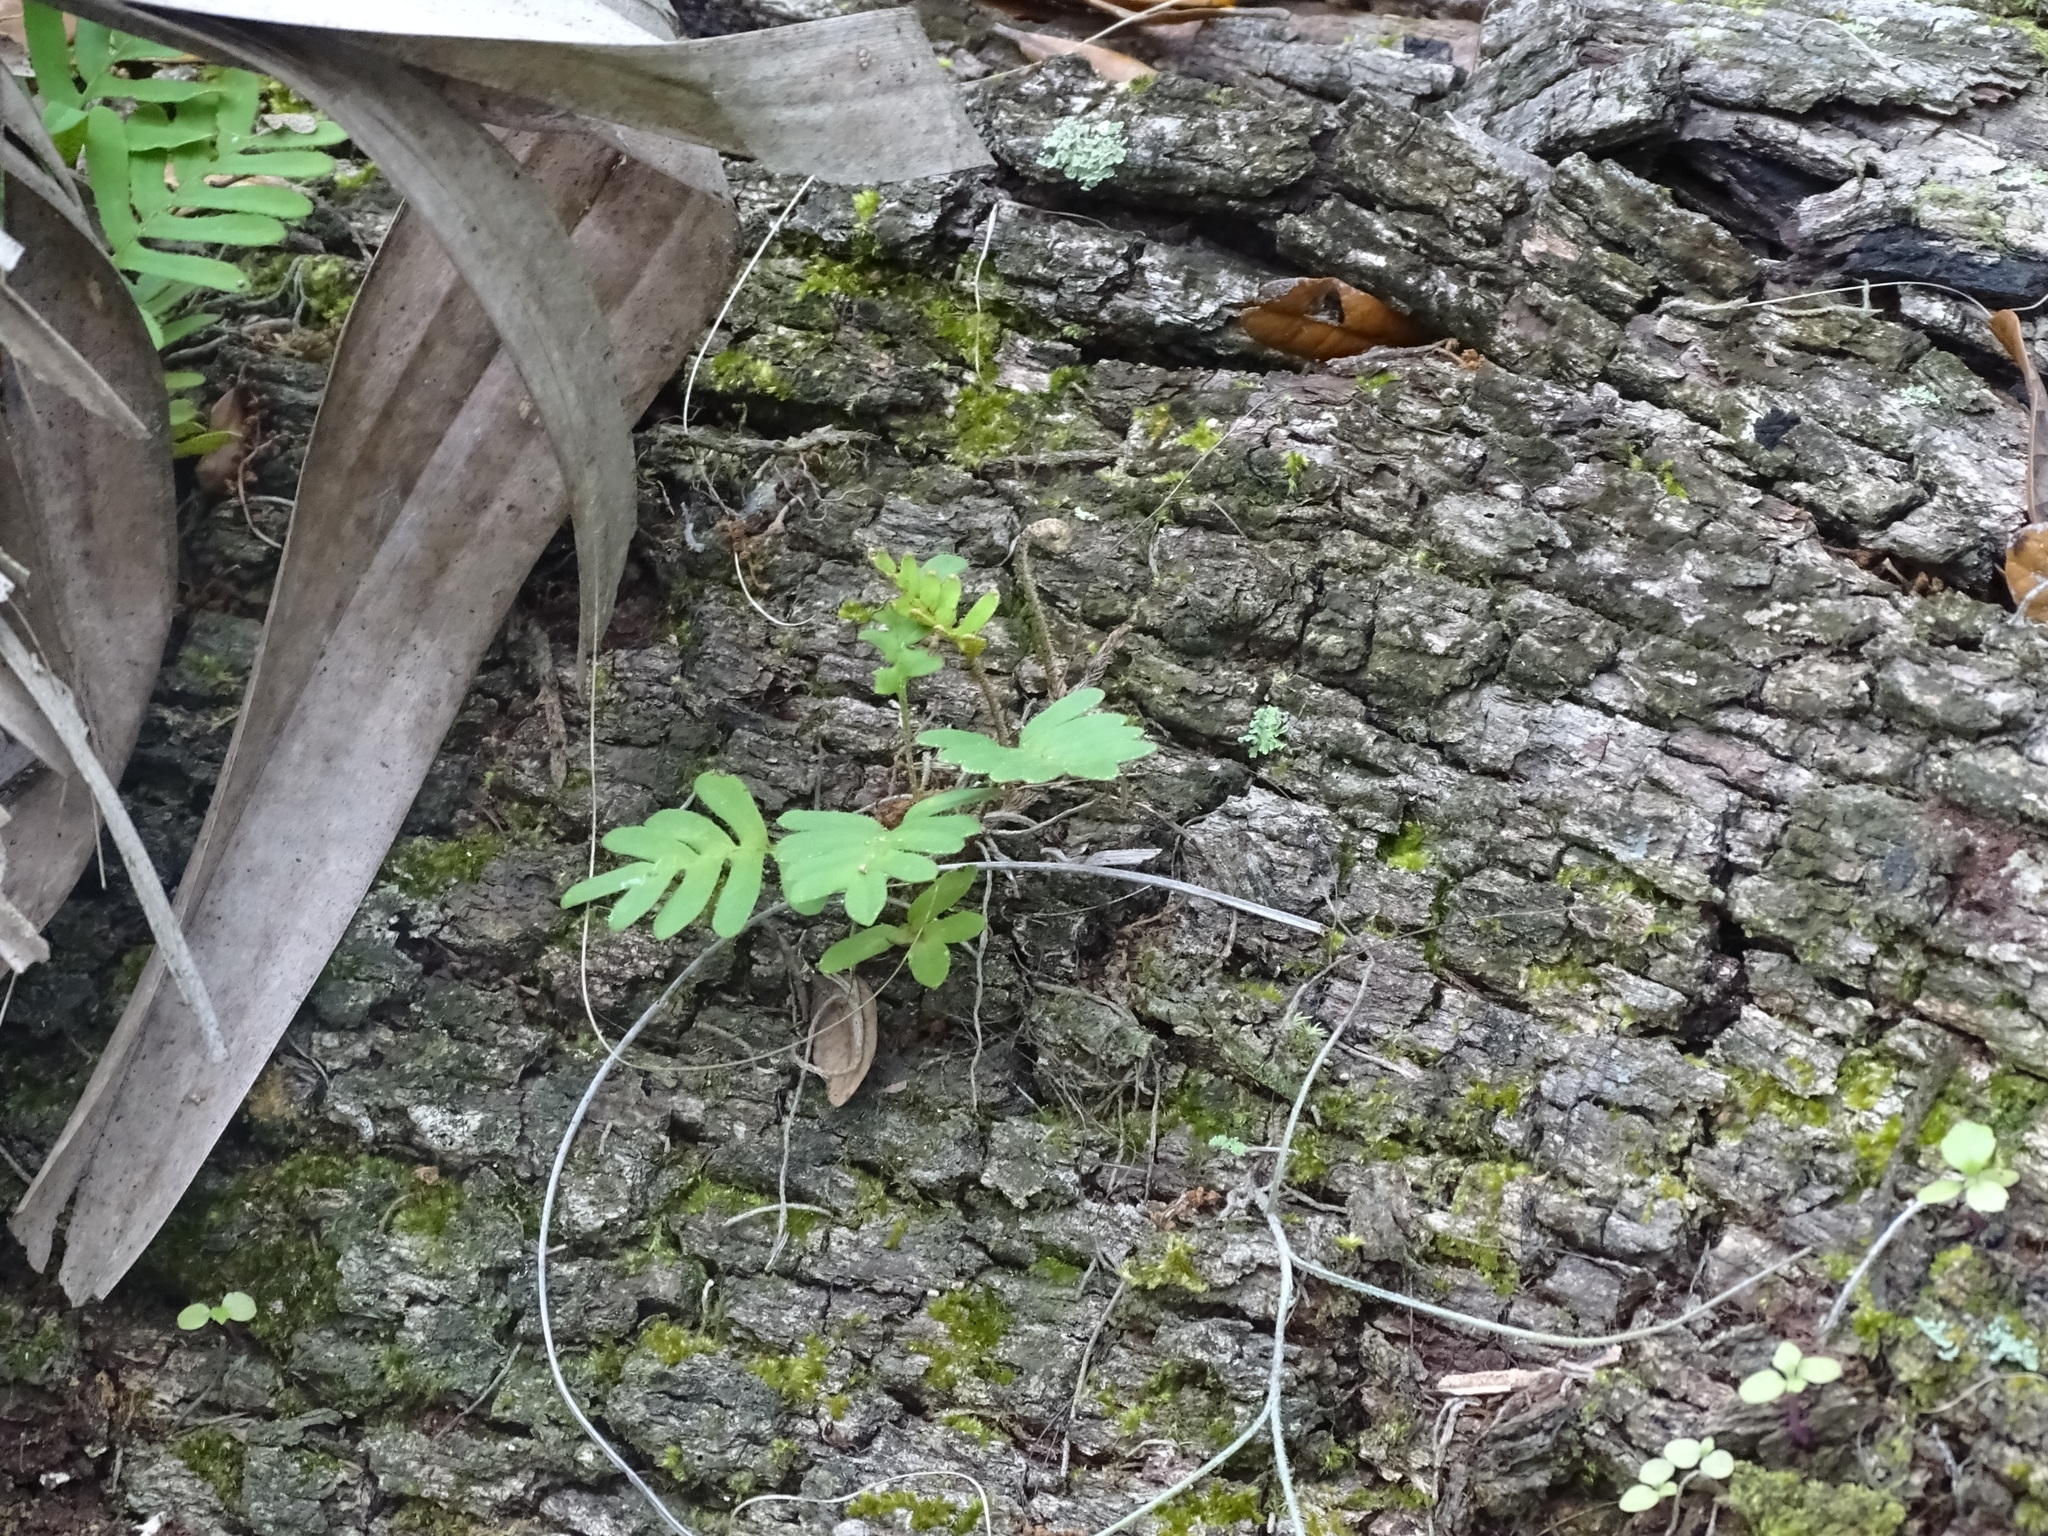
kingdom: Plantae
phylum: Tracheophyta
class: Polypodiopsida
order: Polypodiales
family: Polypodiaceae
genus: Pleopeltis
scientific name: Pleopeltis michauxiana
